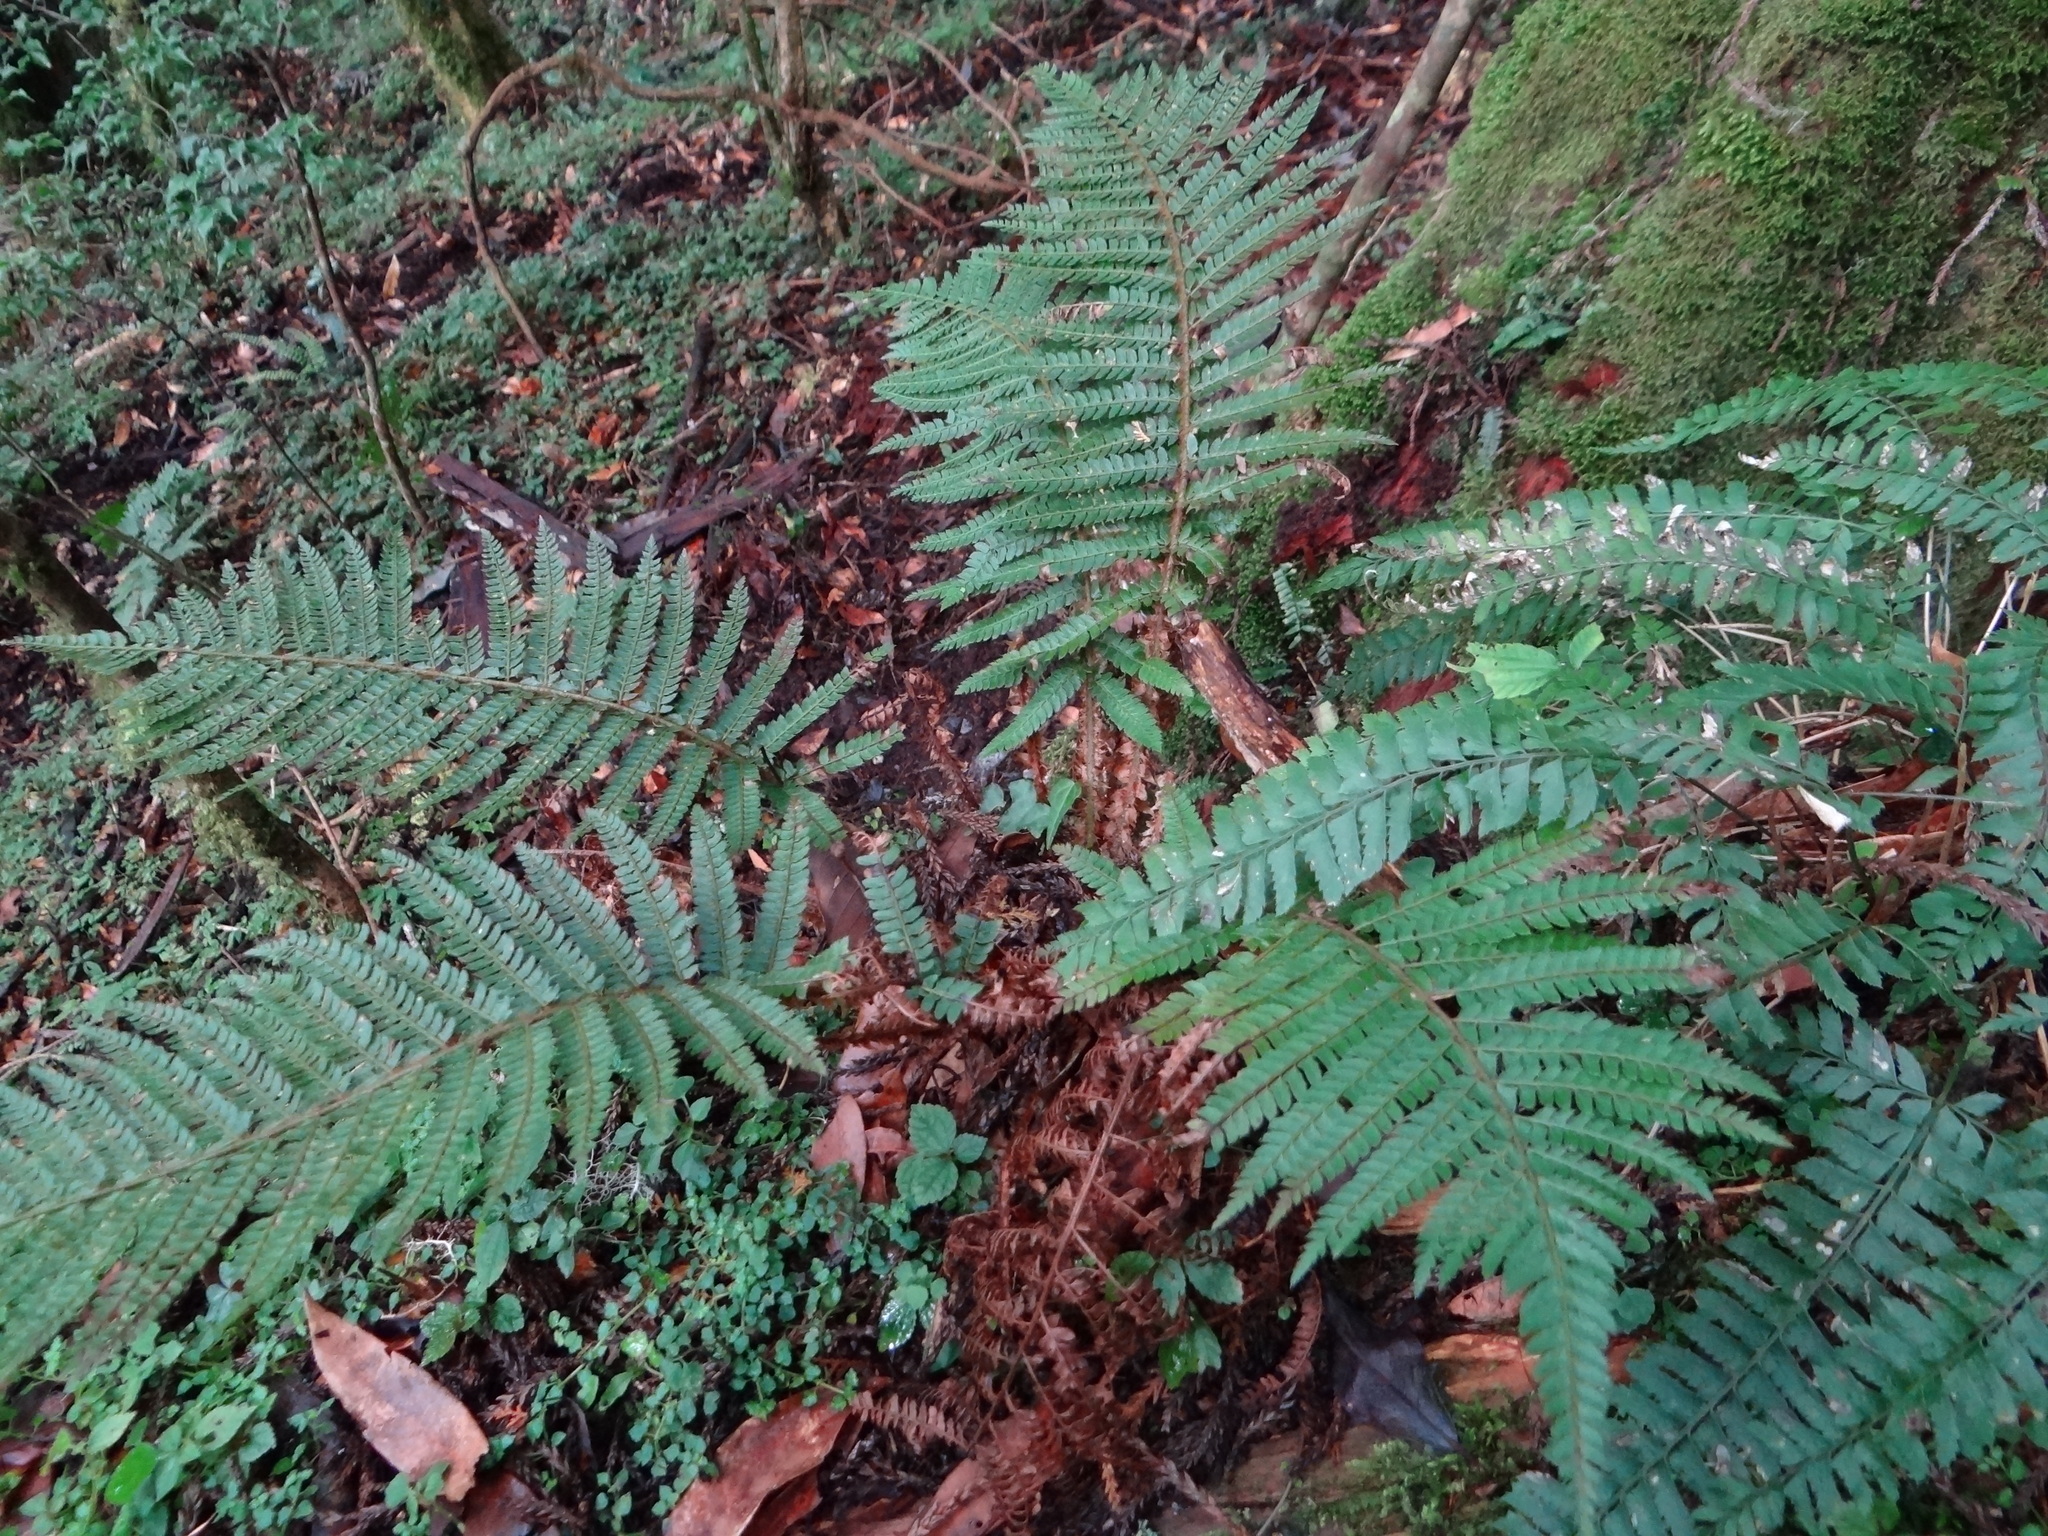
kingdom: Plantae
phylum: Tracheophyta
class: Polypodiopsida
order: Polypodiales
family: Dryopteridaceae
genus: Polystichum
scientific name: Polystichum parvipinnulum
